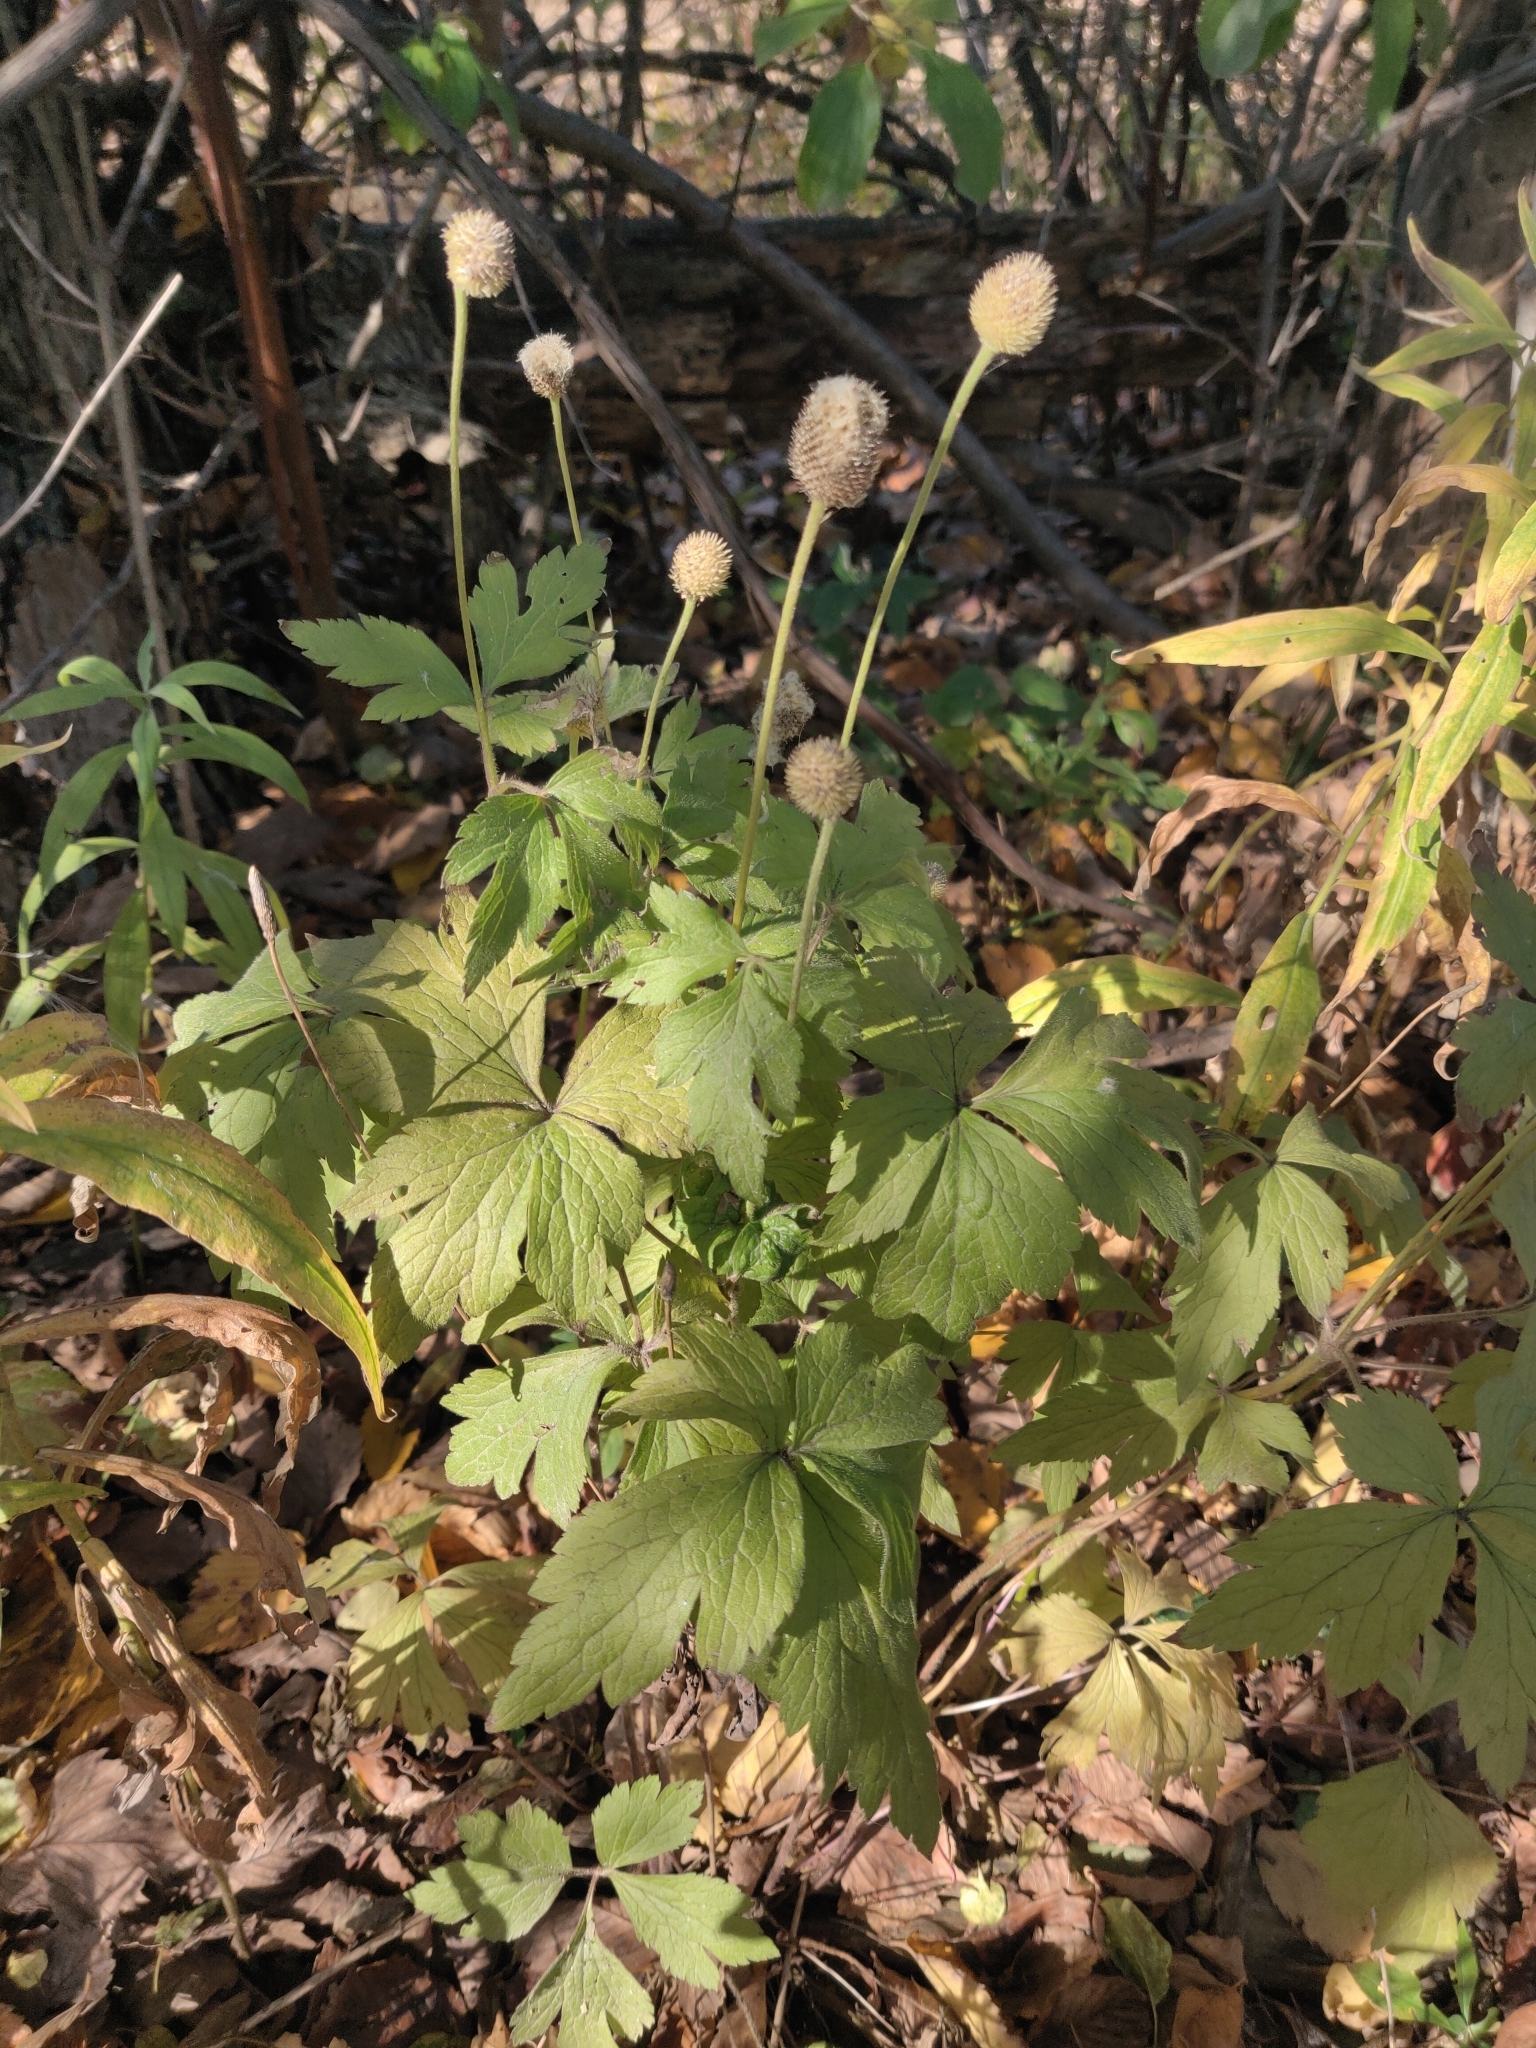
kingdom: Plantae
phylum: Tracheophyta
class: Magnoliopsida
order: Ranunculales
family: Ranunculaceae
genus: Anemone
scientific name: Anemone virginiana
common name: Tall anemone
